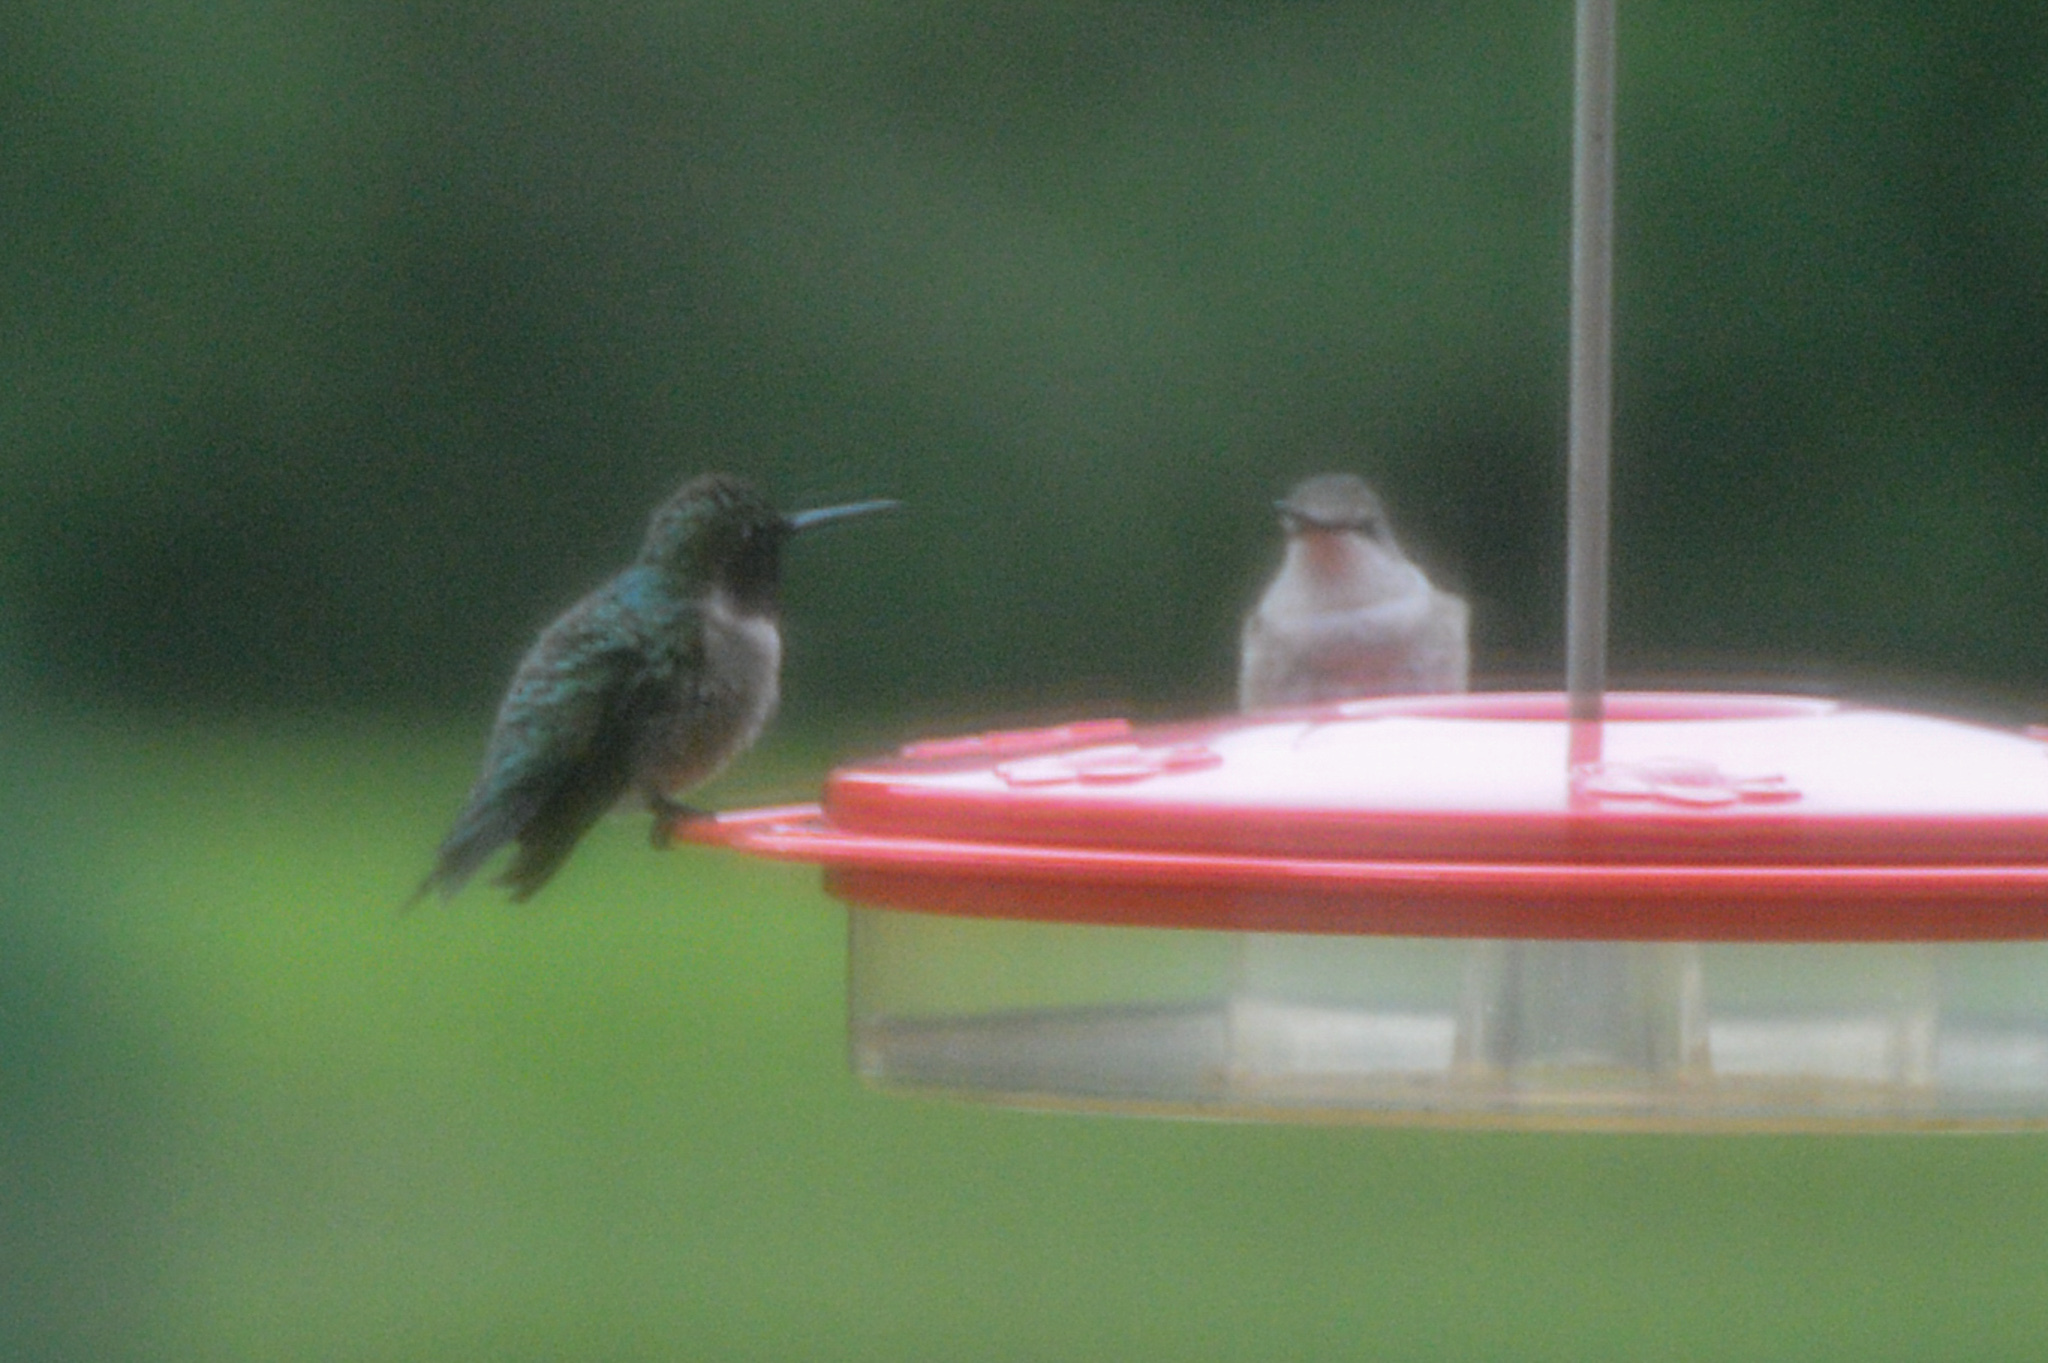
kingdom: Animalia
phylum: Chordata
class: Aves
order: Apodiformes
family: Trochilidae
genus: Archilochus
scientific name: Archilochus colubris
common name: Ruby-throated hummingbird
